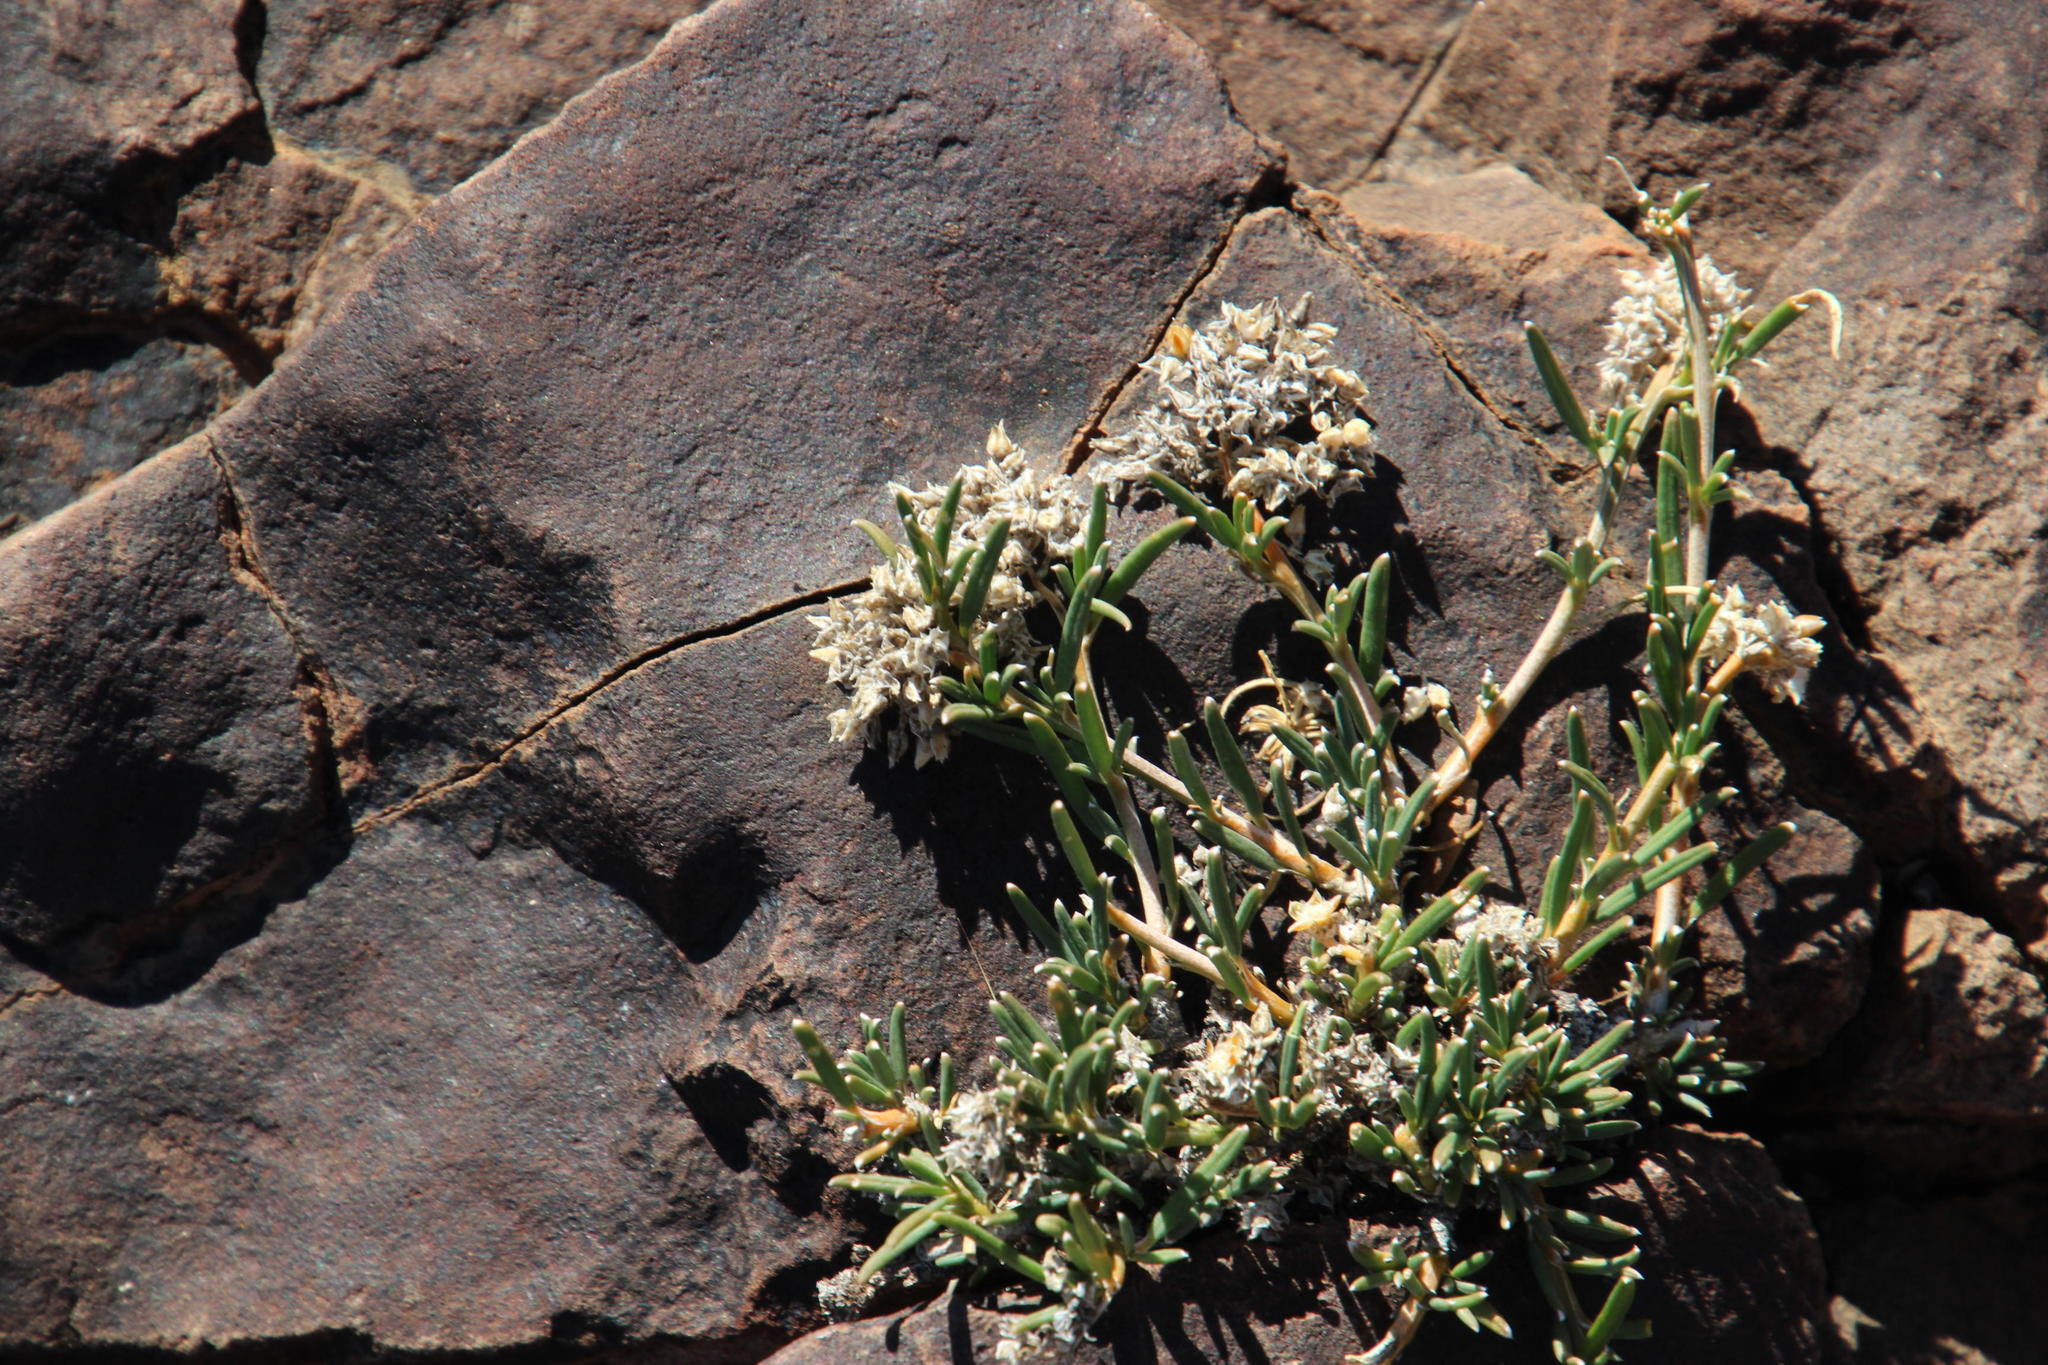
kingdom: Plantae
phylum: Tracheophyta
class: Magnoliopsida
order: Caryophyllales
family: Limeaceae
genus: Limeum
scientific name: Limeum aethiopicum
